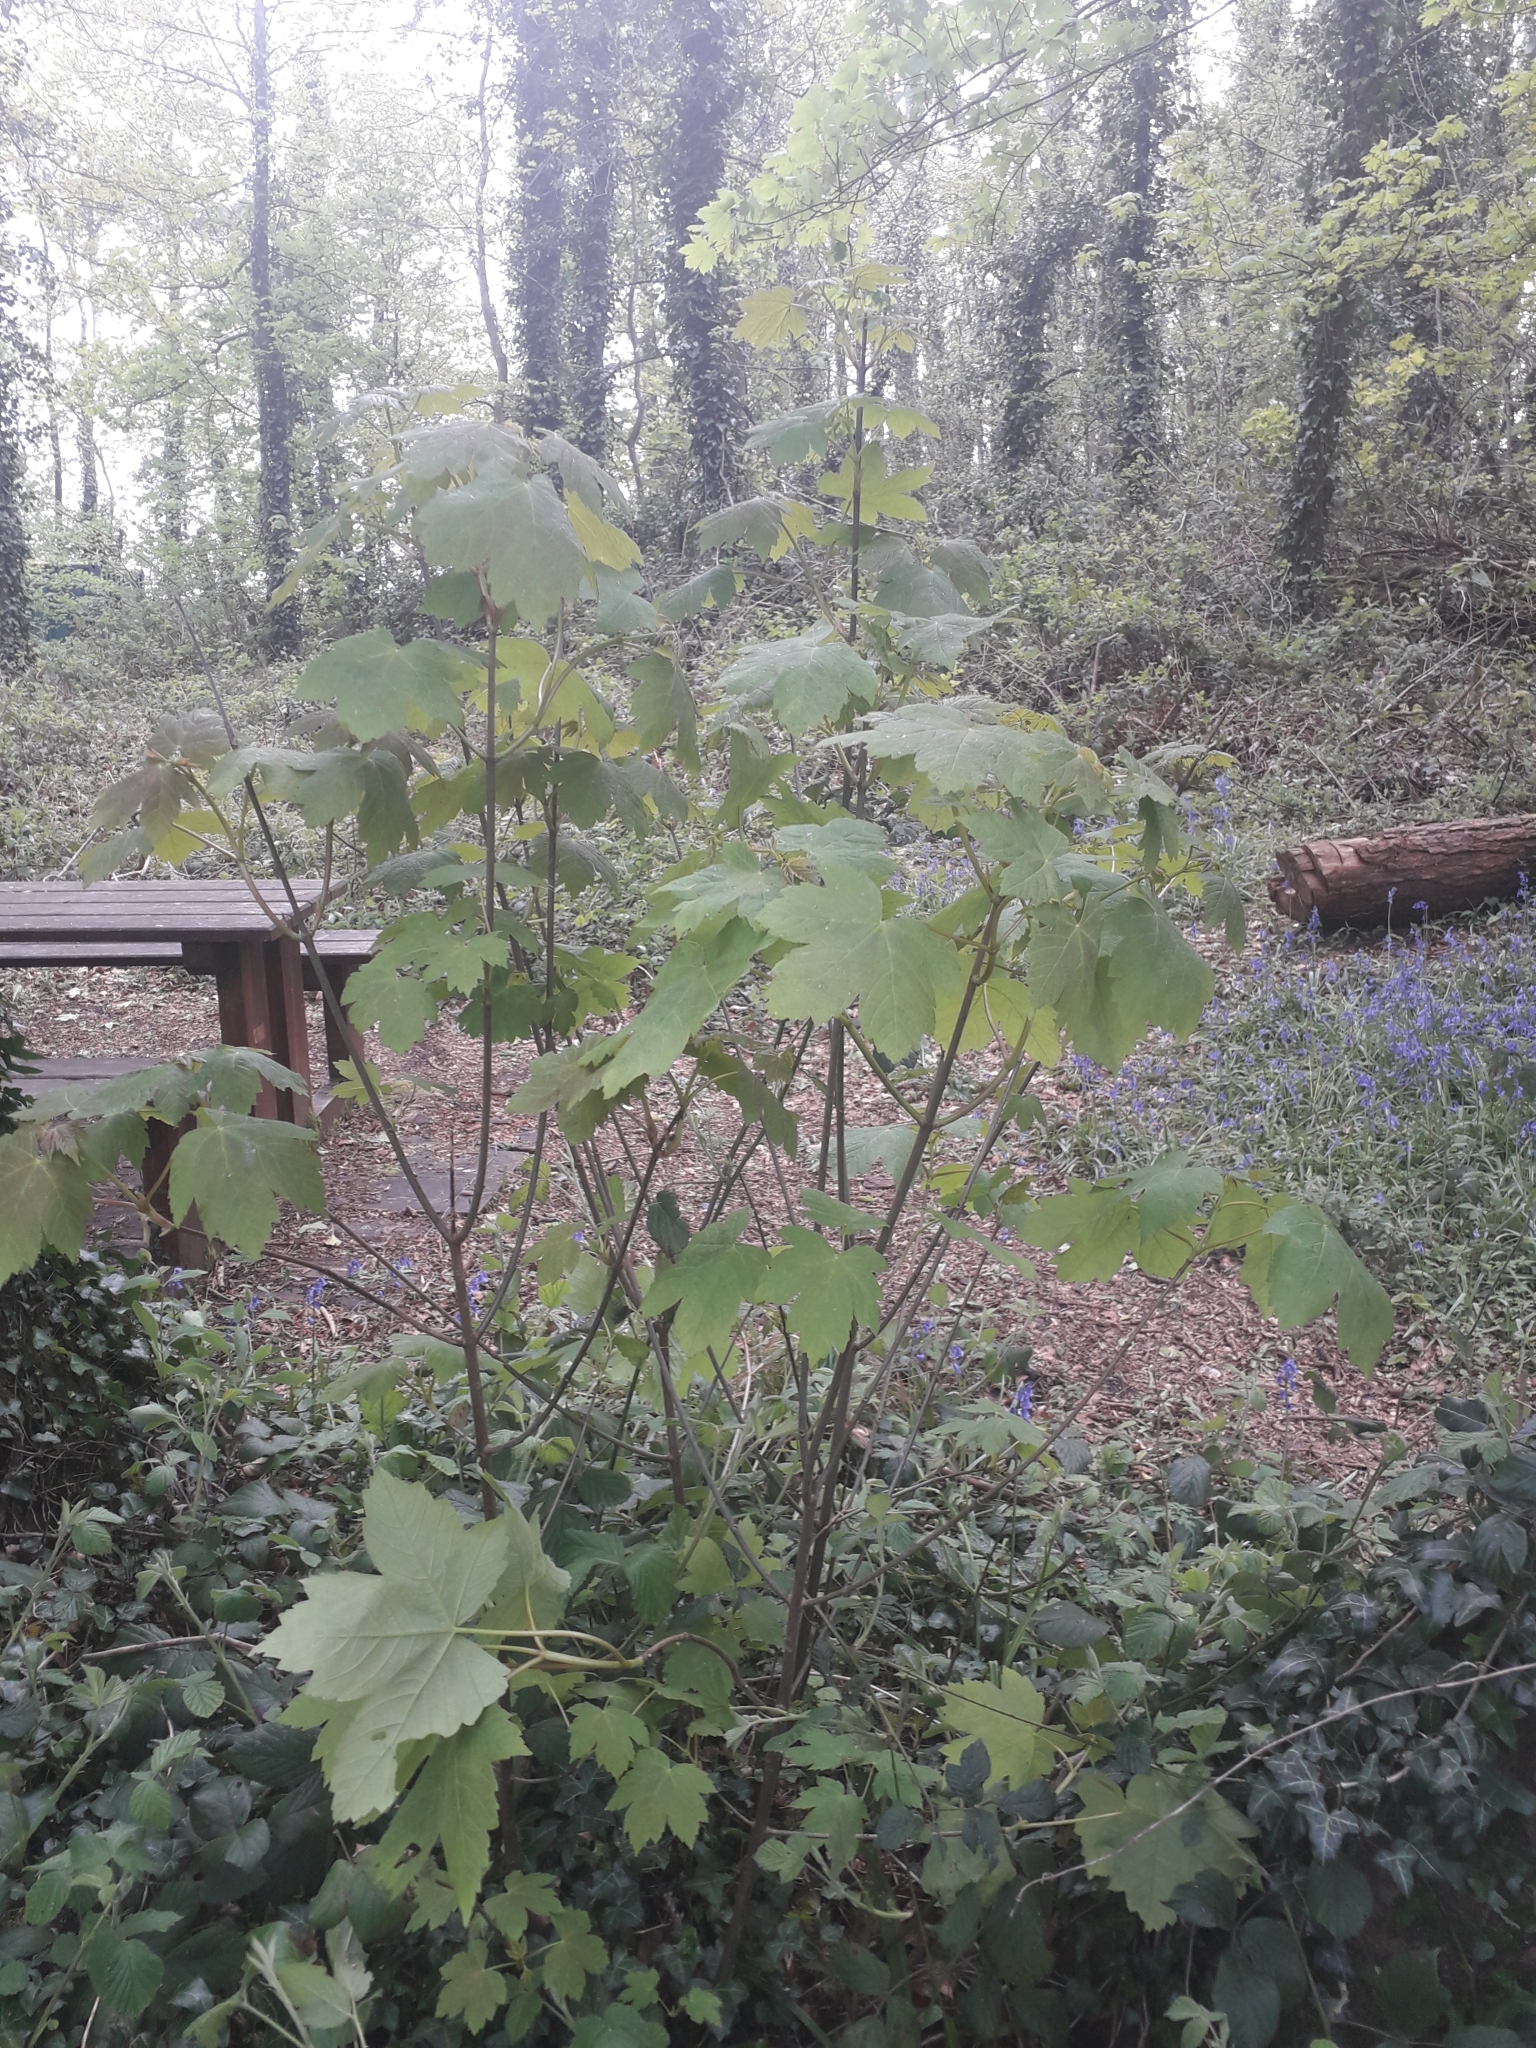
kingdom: Plantae
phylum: Tracheophyta
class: Magnoliopsida
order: Sapindales
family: Sapindaceae
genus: Acer
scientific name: Acer pseudoplatanus
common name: Sycamore
